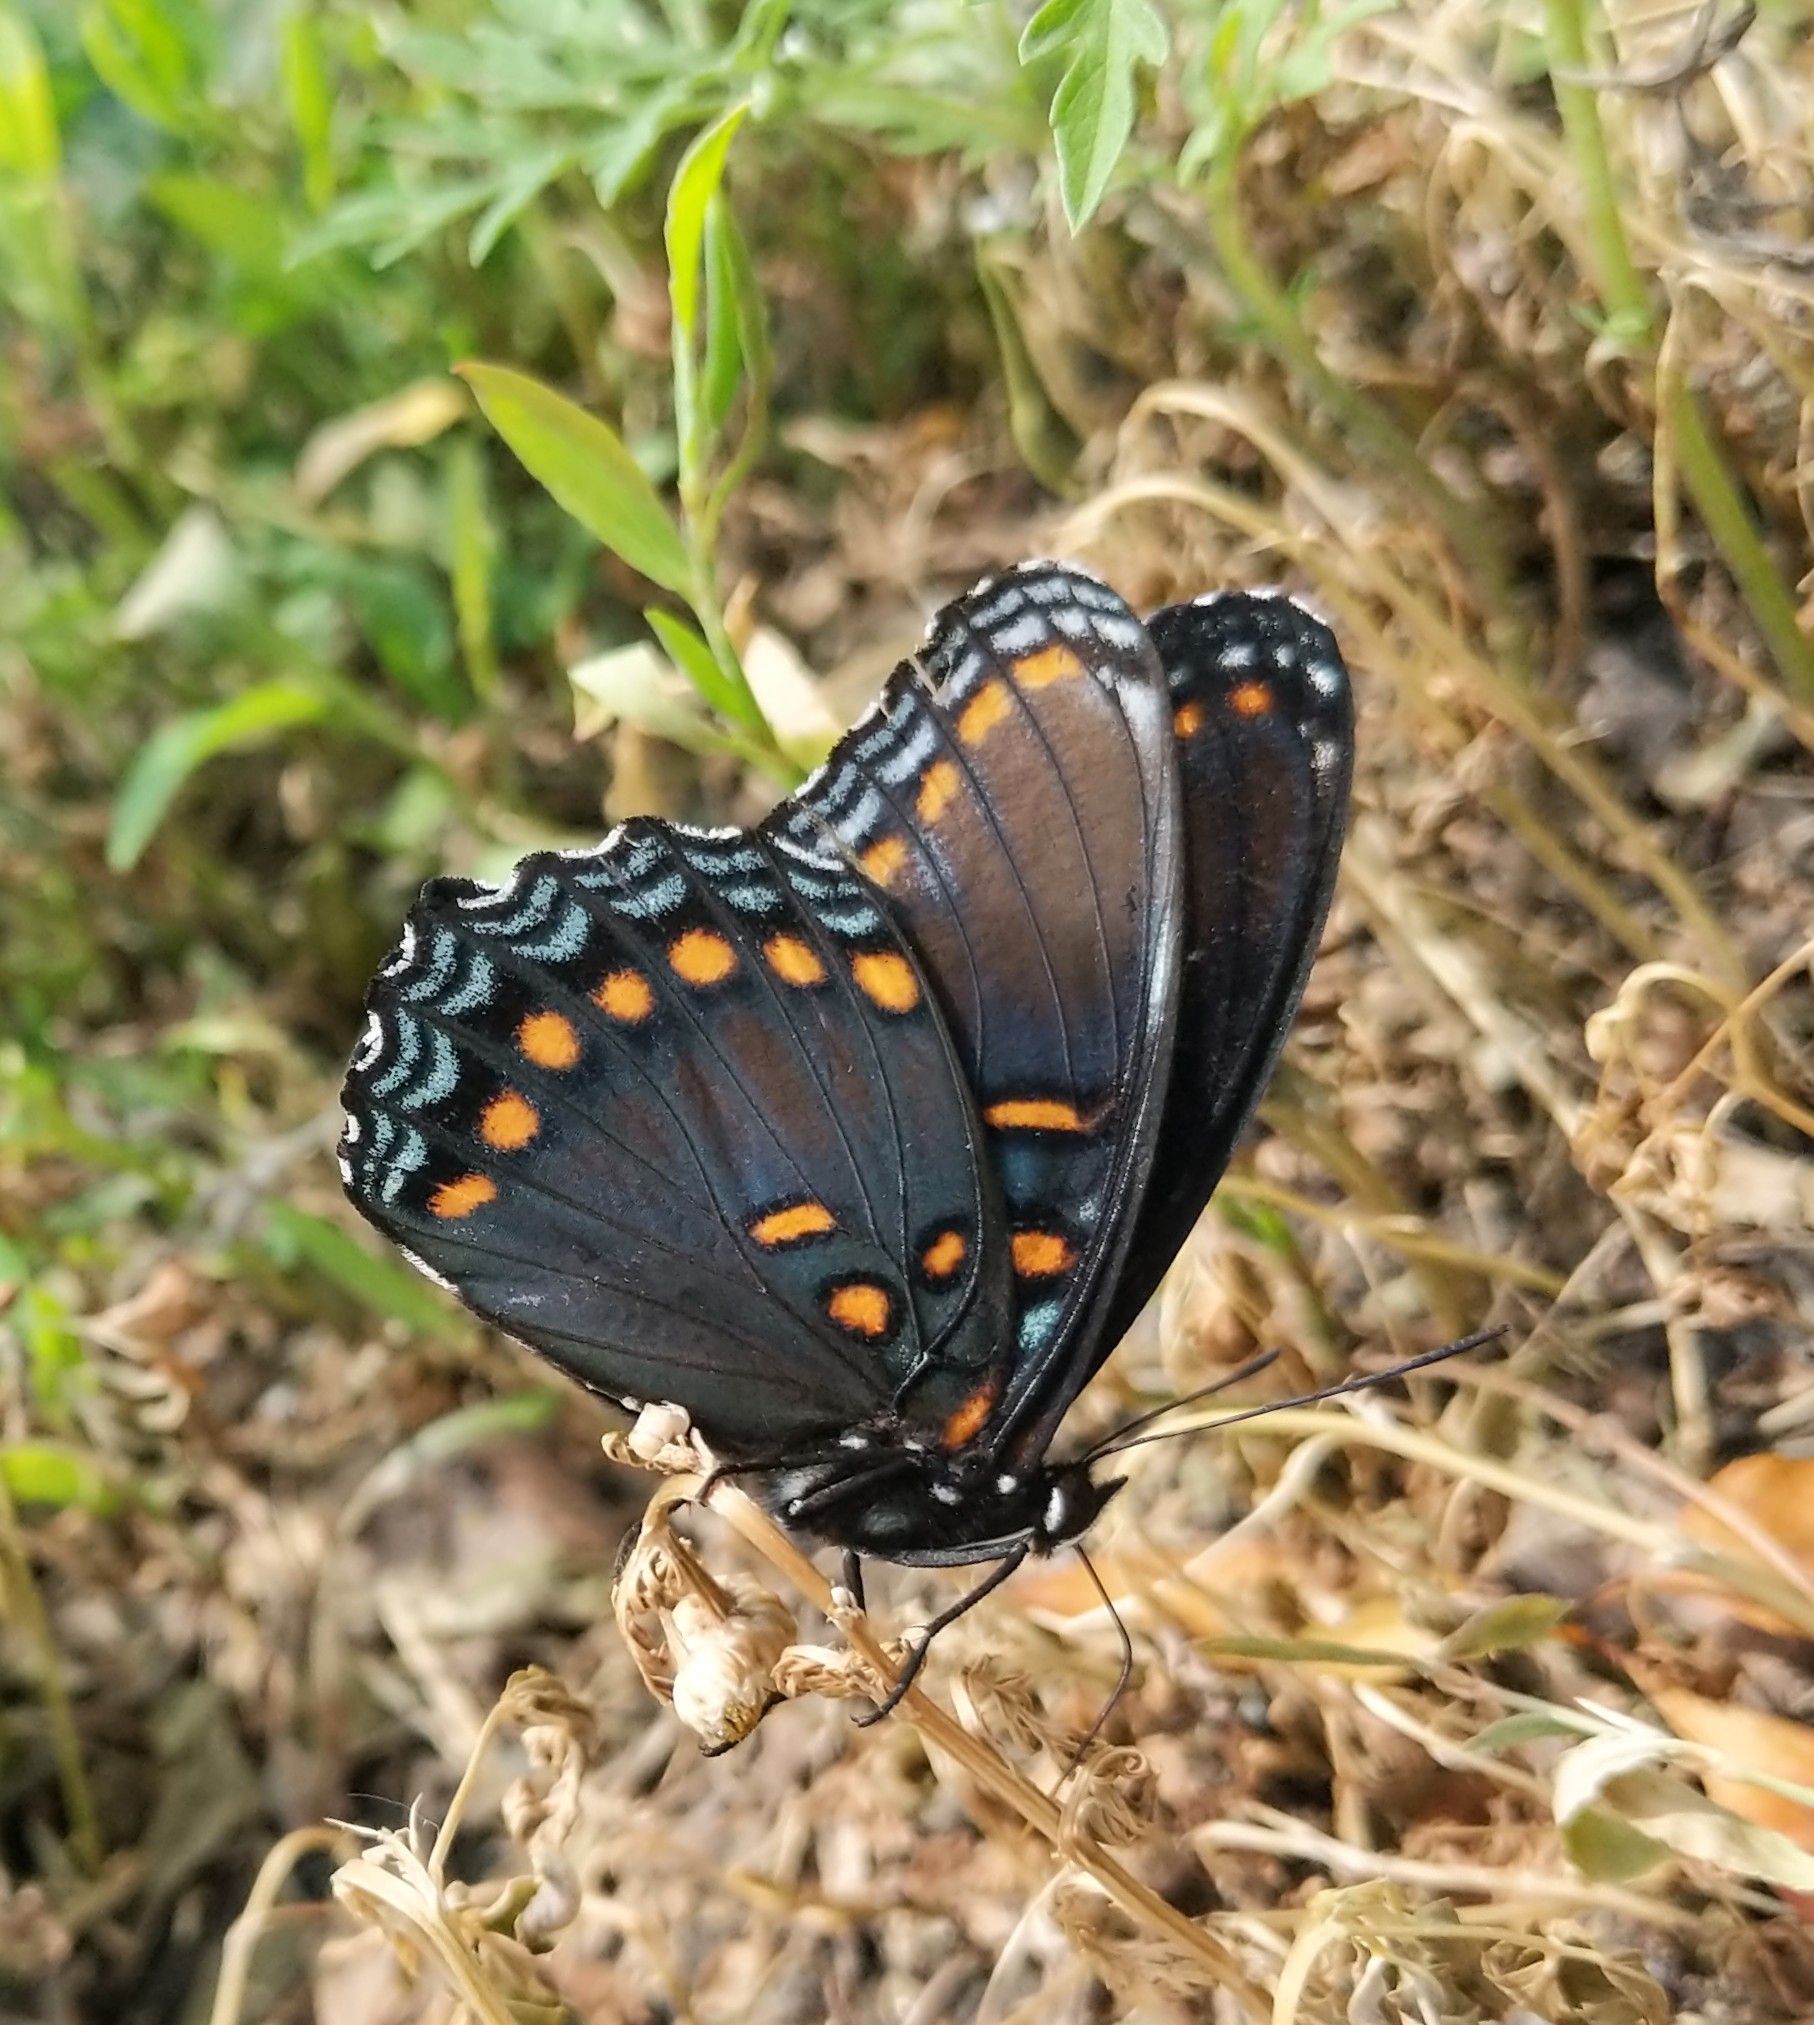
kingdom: Animalia
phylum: Arthropoda
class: Insecta
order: Lepidoptera
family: Nymphalidae
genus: Limenitis
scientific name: Limenitis astyanax
